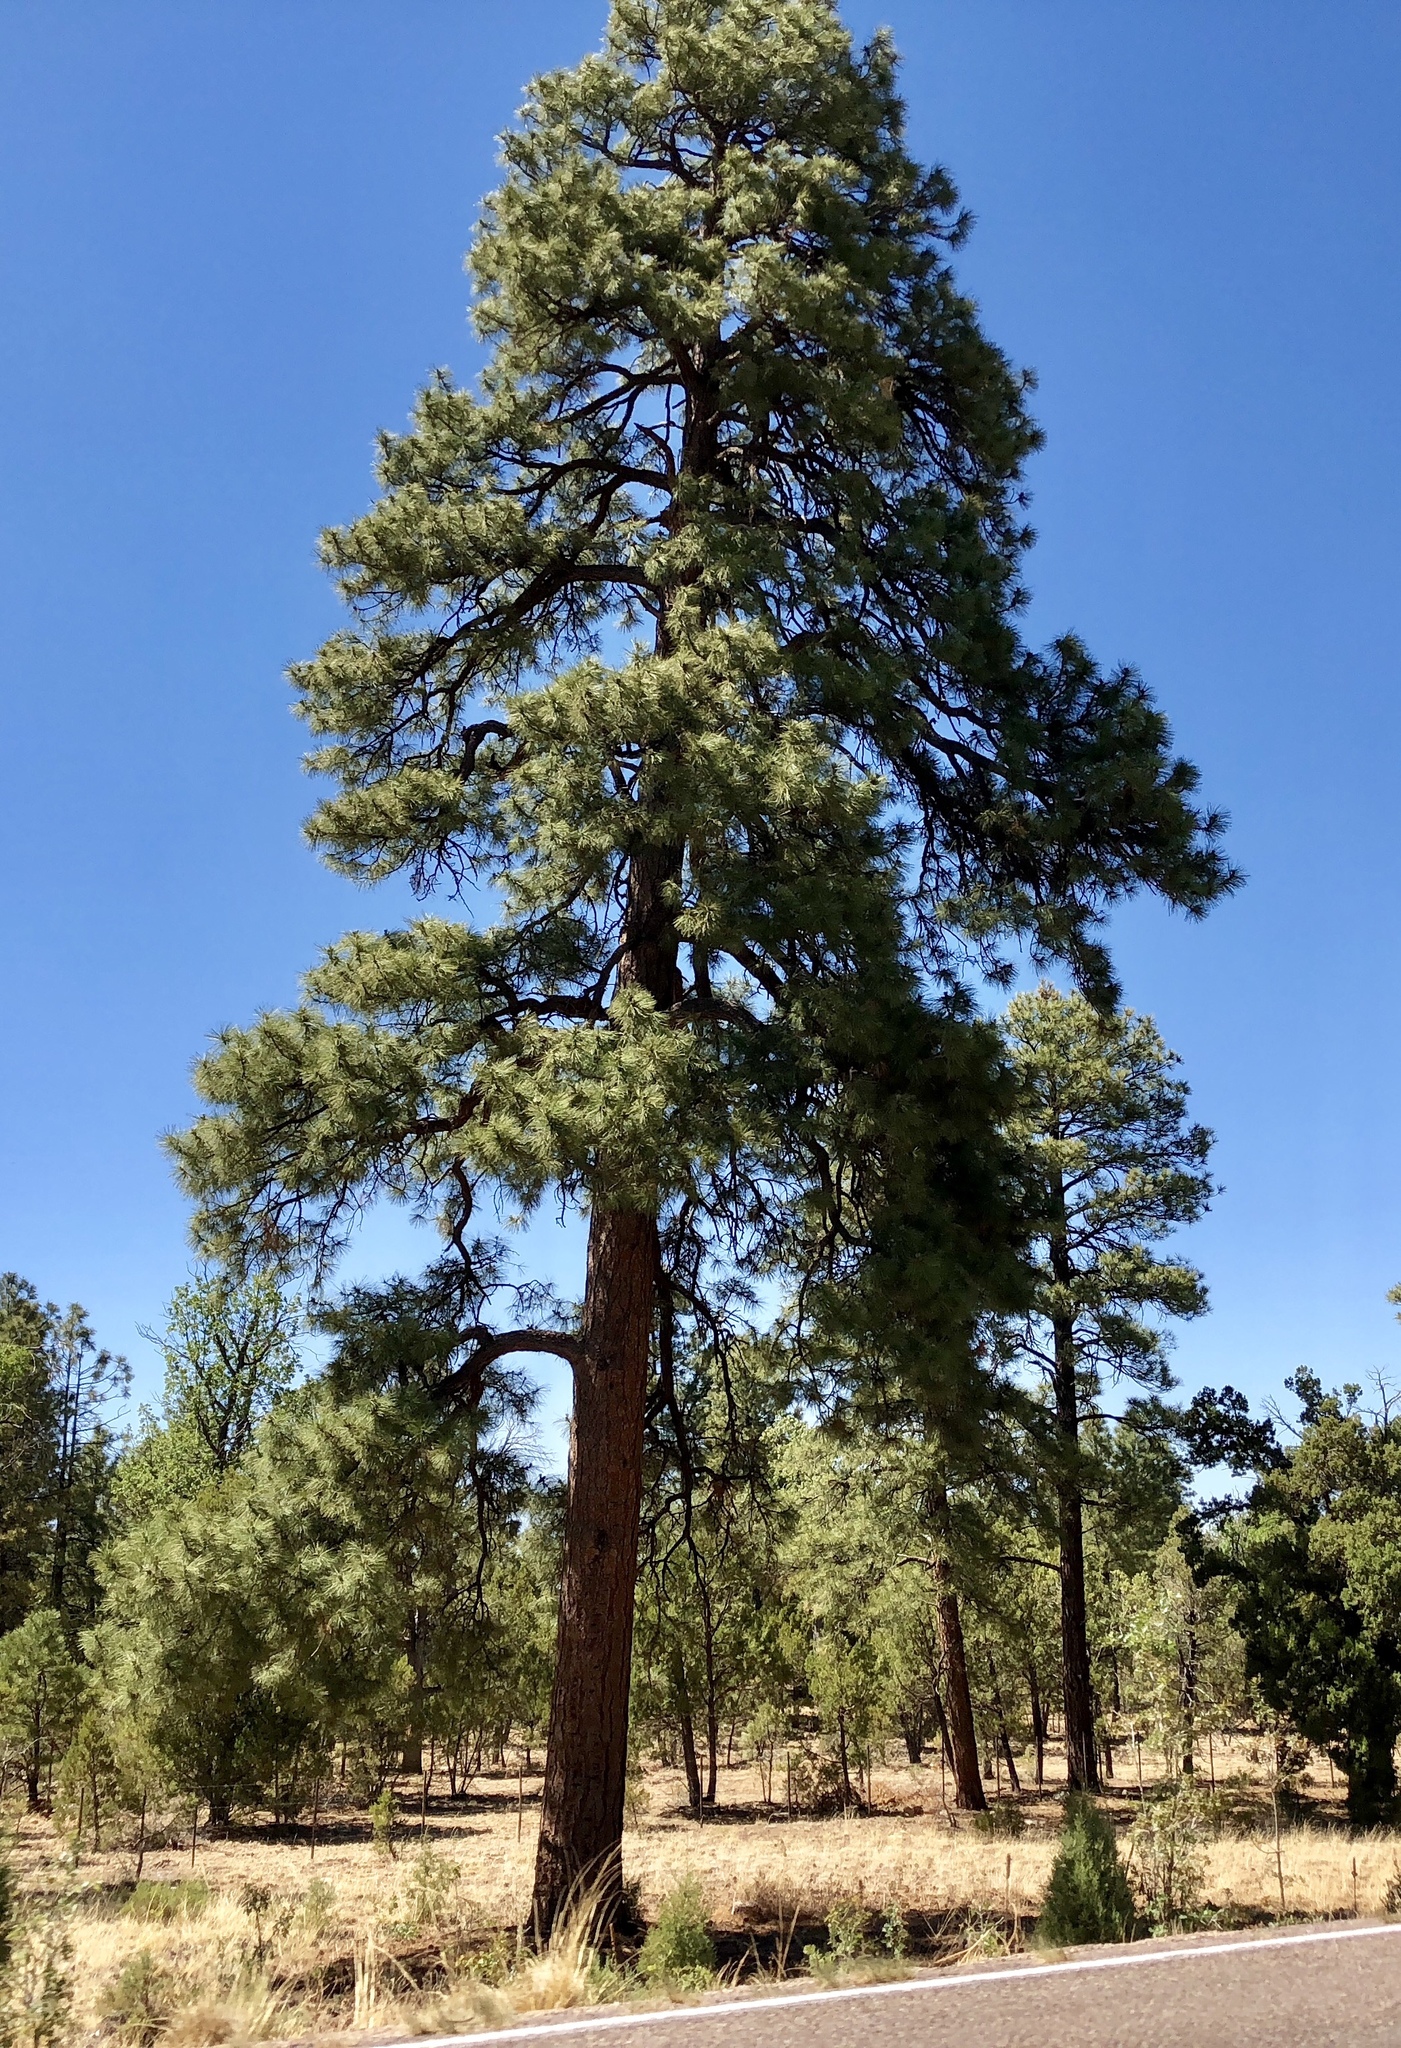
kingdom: Plantae
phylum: Tracheophyta
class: Pinopsida
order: Pinales
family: Pinaceae
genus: Pinus
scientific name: Pinus ponderosa
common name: Western yellow-pine
